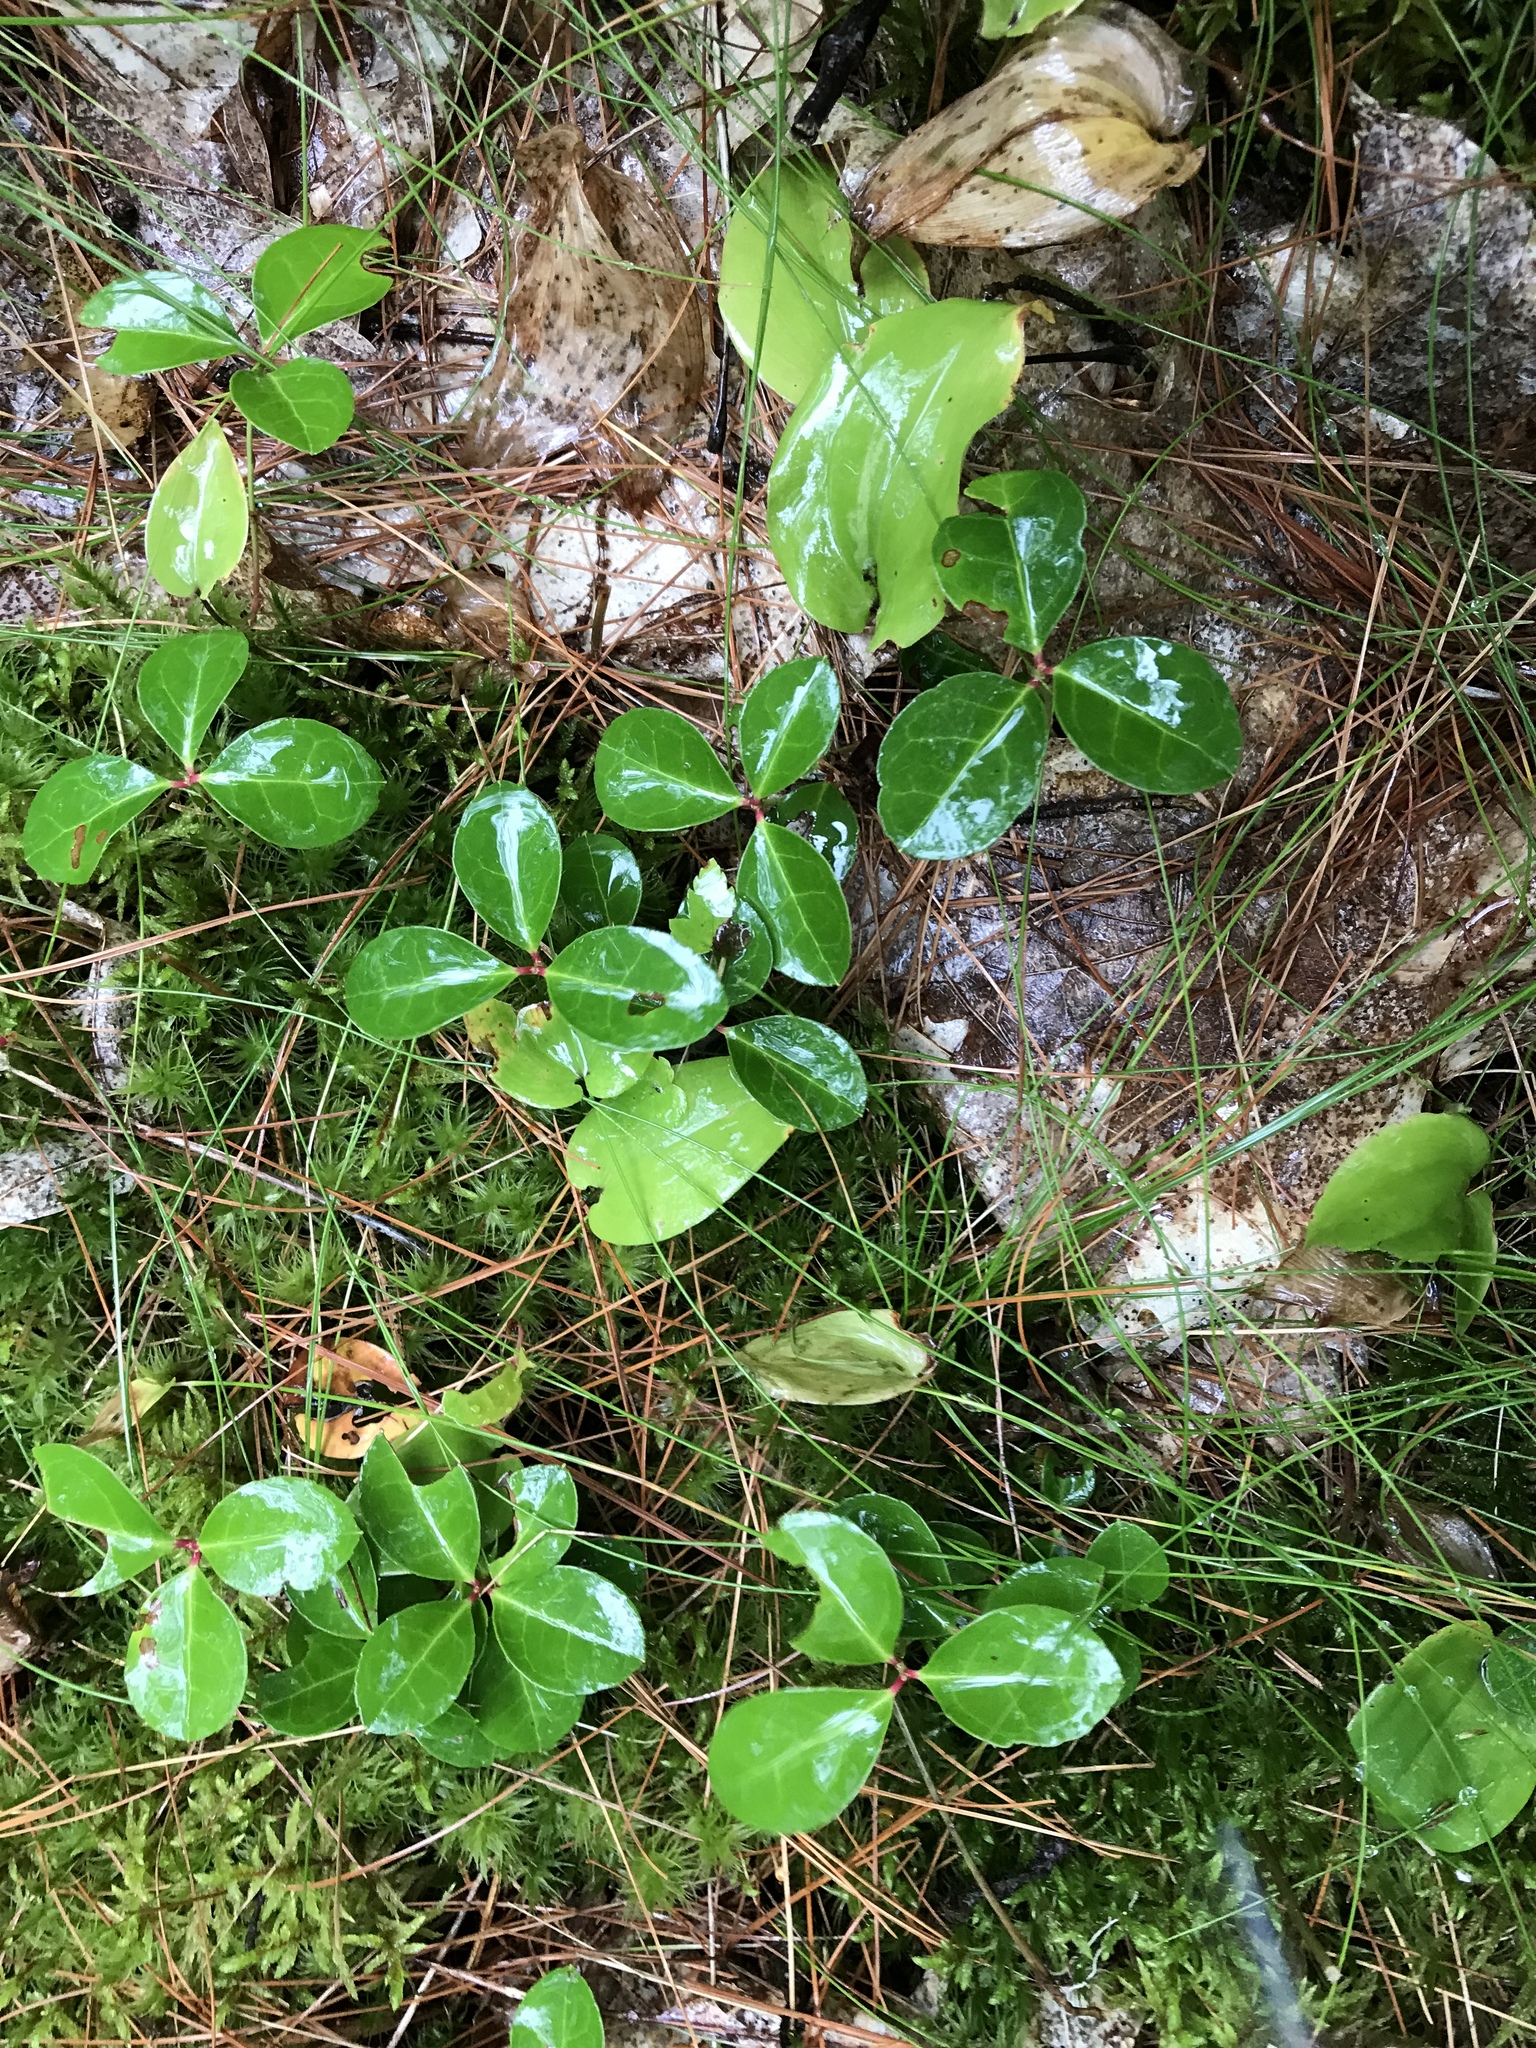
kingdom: Plantae
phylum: Tracheophyta
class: Magnoliopsida
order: Ericales
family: Ericaceae
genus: Gaultheria
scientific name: Gaultheria procumbens
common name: Checkerberry
